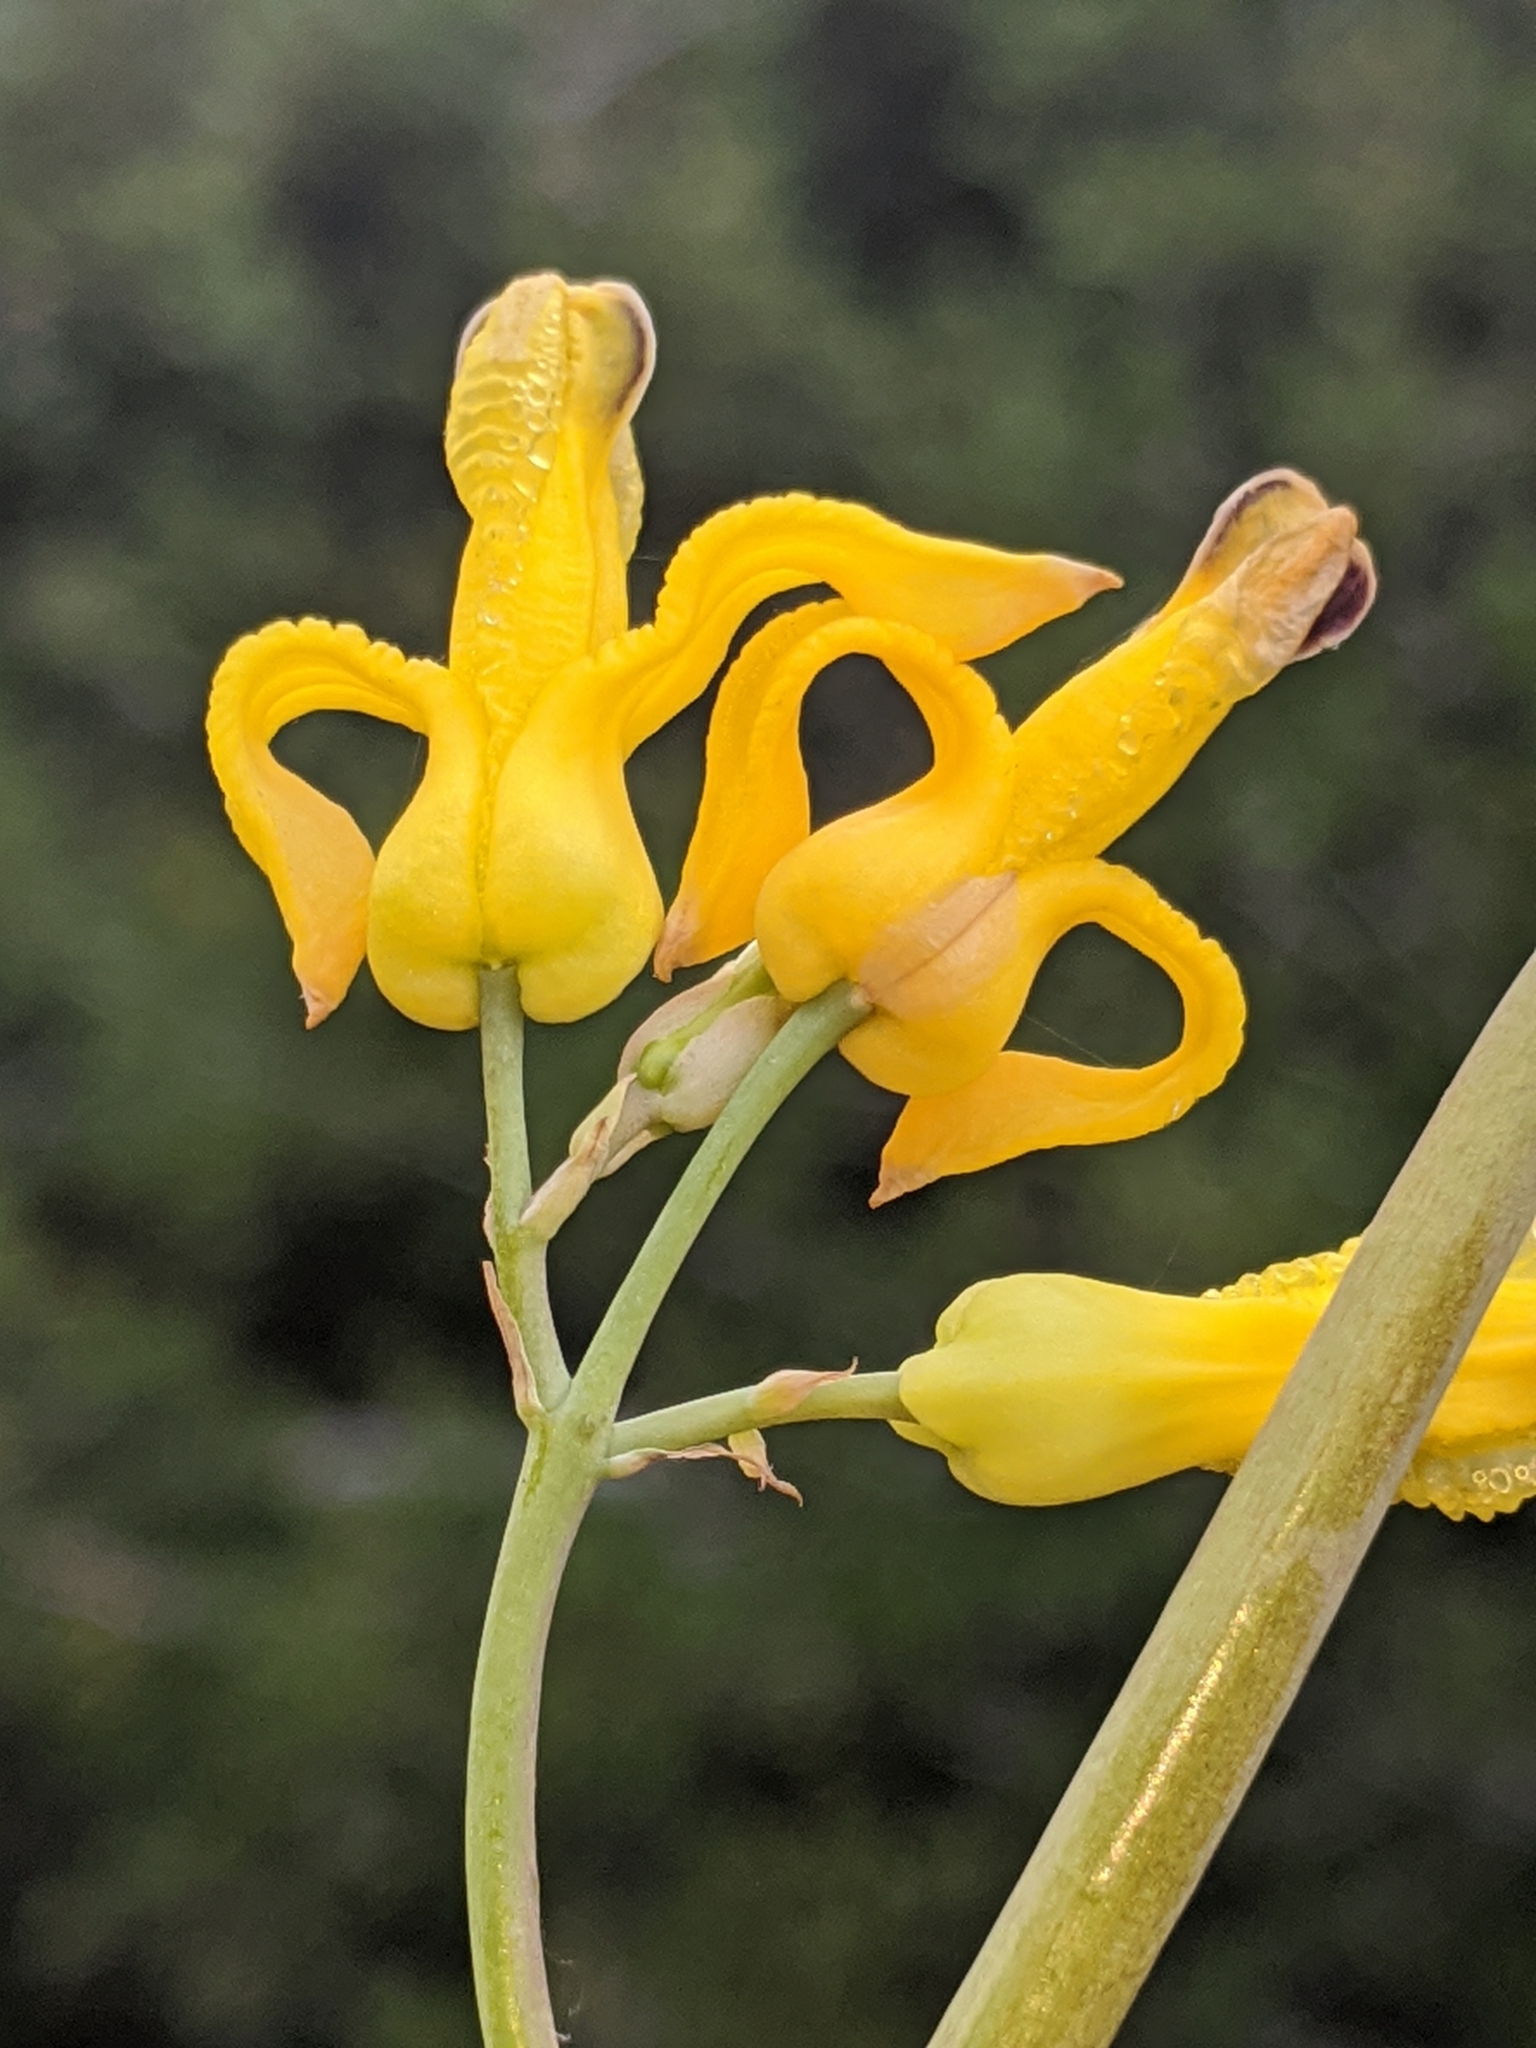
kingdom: Plantae
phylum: Tracheophyta
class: Magnoliopsida
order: Ranunculales
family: Papaveraceae
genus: Ehrendorferia
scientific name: Ehrendorferia chrysantha
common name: Golden eardrops
